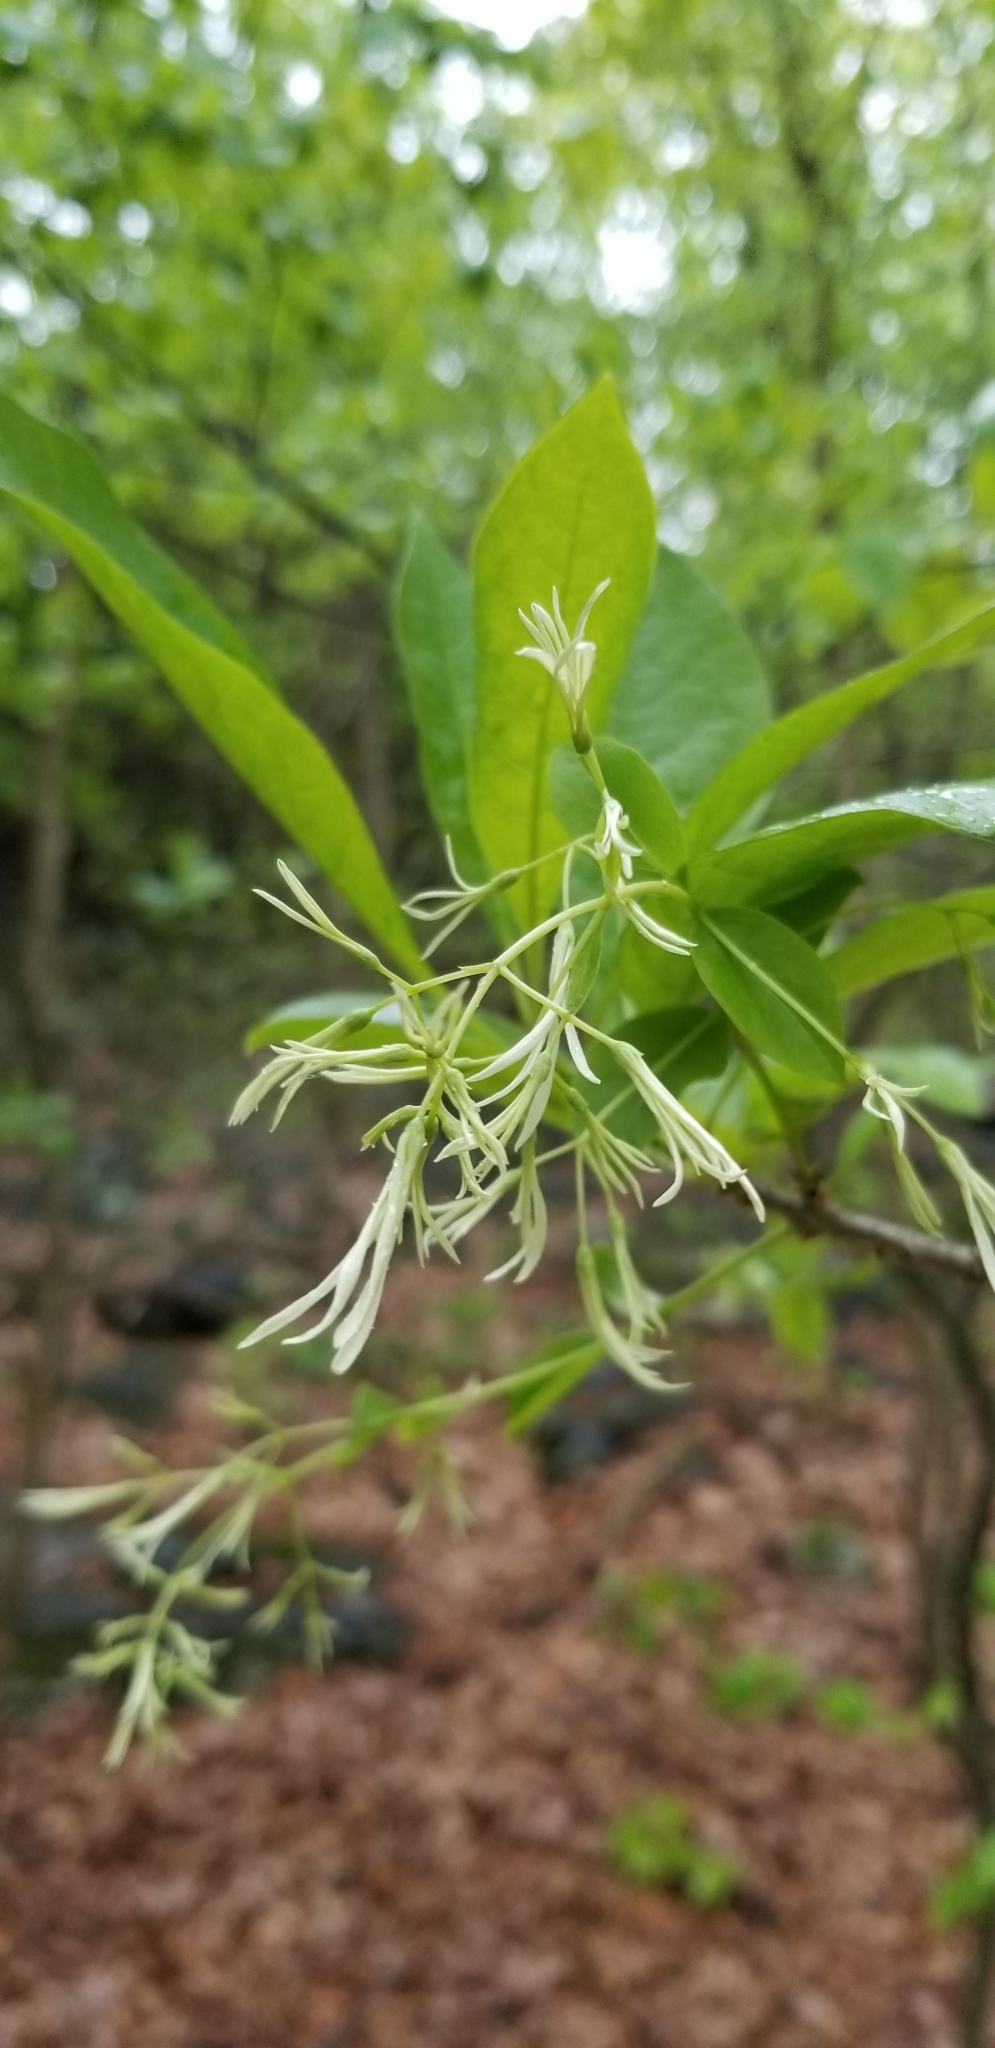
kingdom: Plantae
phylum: Tracheophyta
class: Magnoliopsida
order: Lamiales
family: Oleaceae
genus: Chionanthus
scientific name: Chionanthus virginicus
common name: American fringetree
